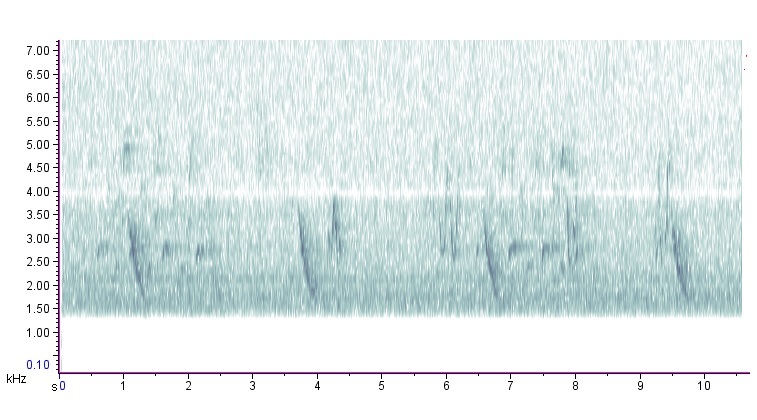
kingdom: Animalia
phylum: Chordata
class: Aves
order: Passeriformes
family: Turdidae
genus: Catharus
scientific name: Catharus fuscescens
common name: Veery
